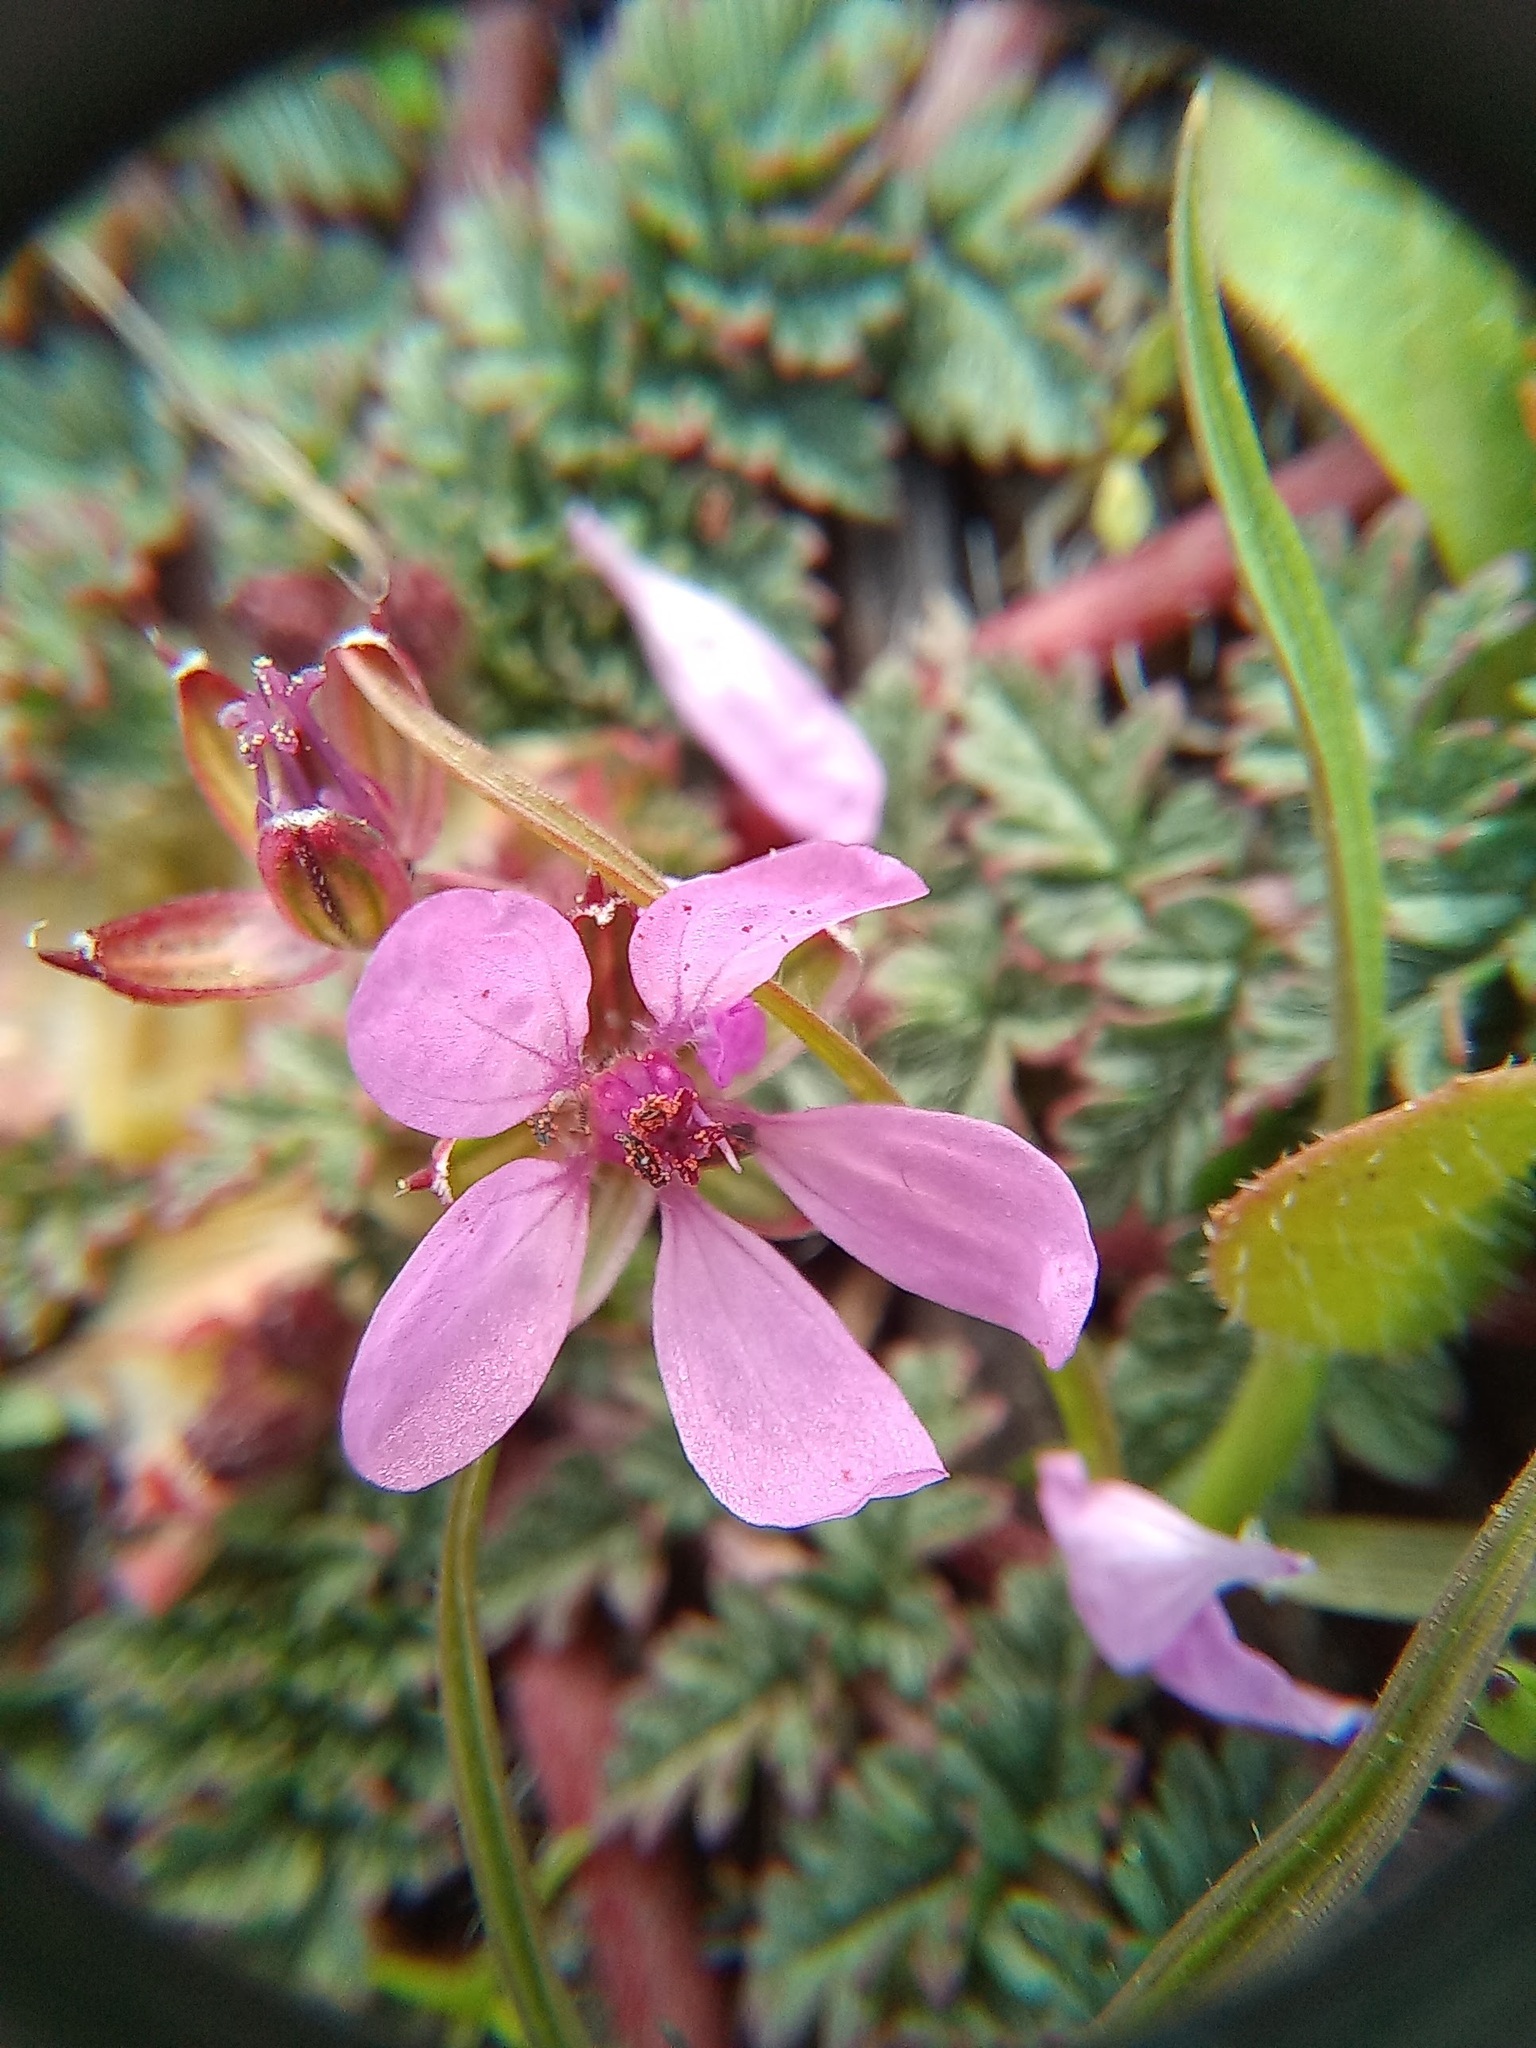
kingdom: Plantae
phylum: Tracheophyta
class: Magnoliopsida
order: Geraniales
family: Geraniaceae
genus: Erodium
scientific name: Erodium cicutarium
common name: Common stork's-bill
